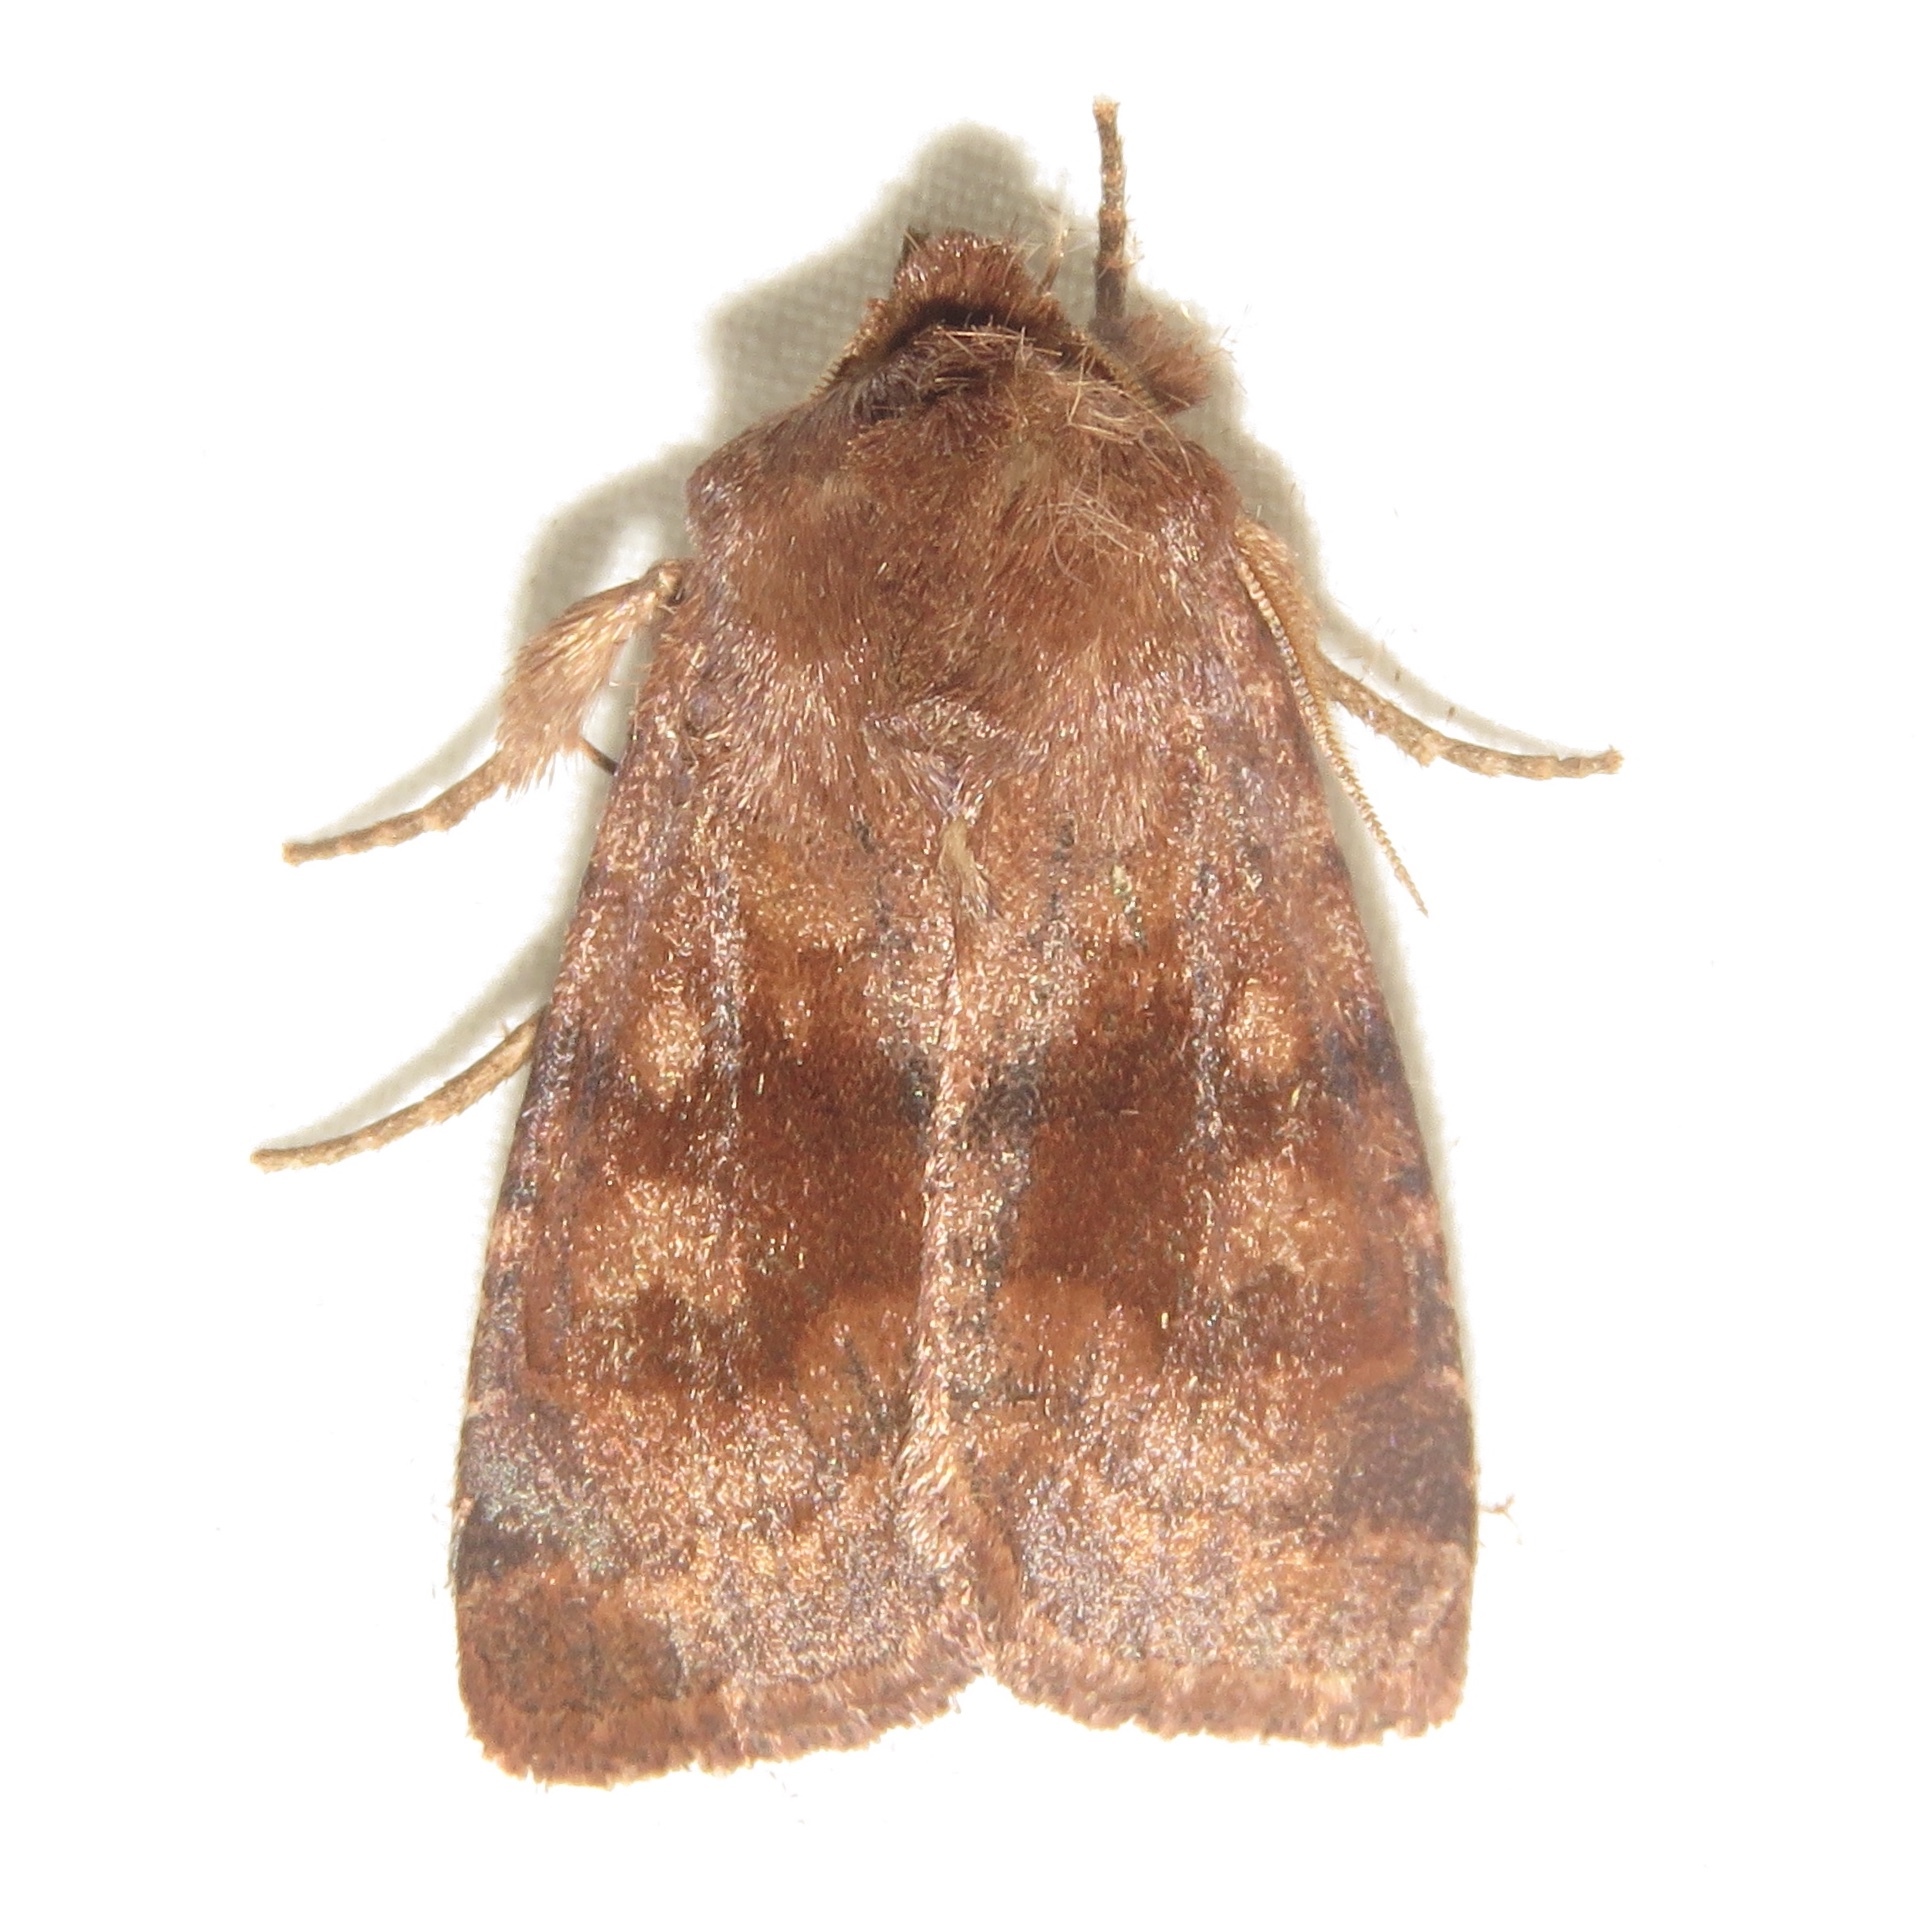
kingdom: Animalia
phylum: Arthropoda
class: Insecta
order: Lepidoptera
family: Noctuidae
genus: Nephelodes
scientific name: Nephelodes minians
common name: Bronzed cutworm
